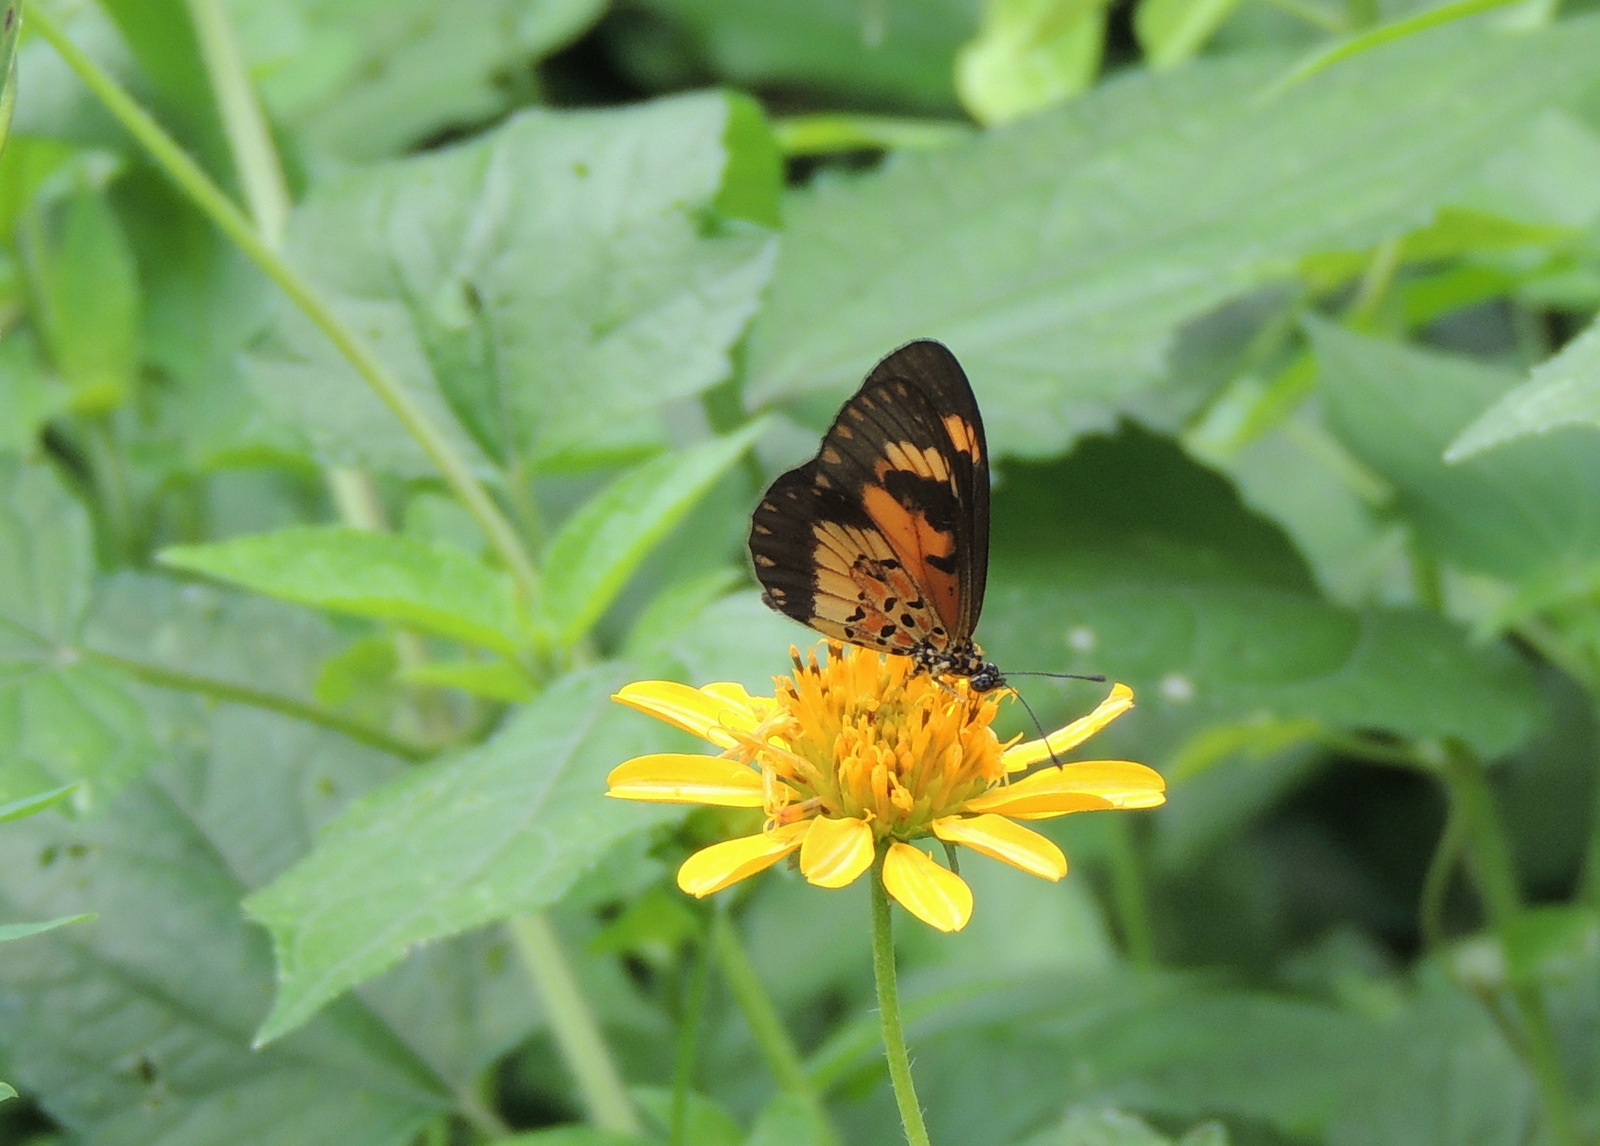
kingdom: Animalia
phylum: Arthropoda
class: Insecta
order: Lepidoptera
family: Nymphalidae
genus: Acraea
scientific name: Acraea Telchinia acerata
